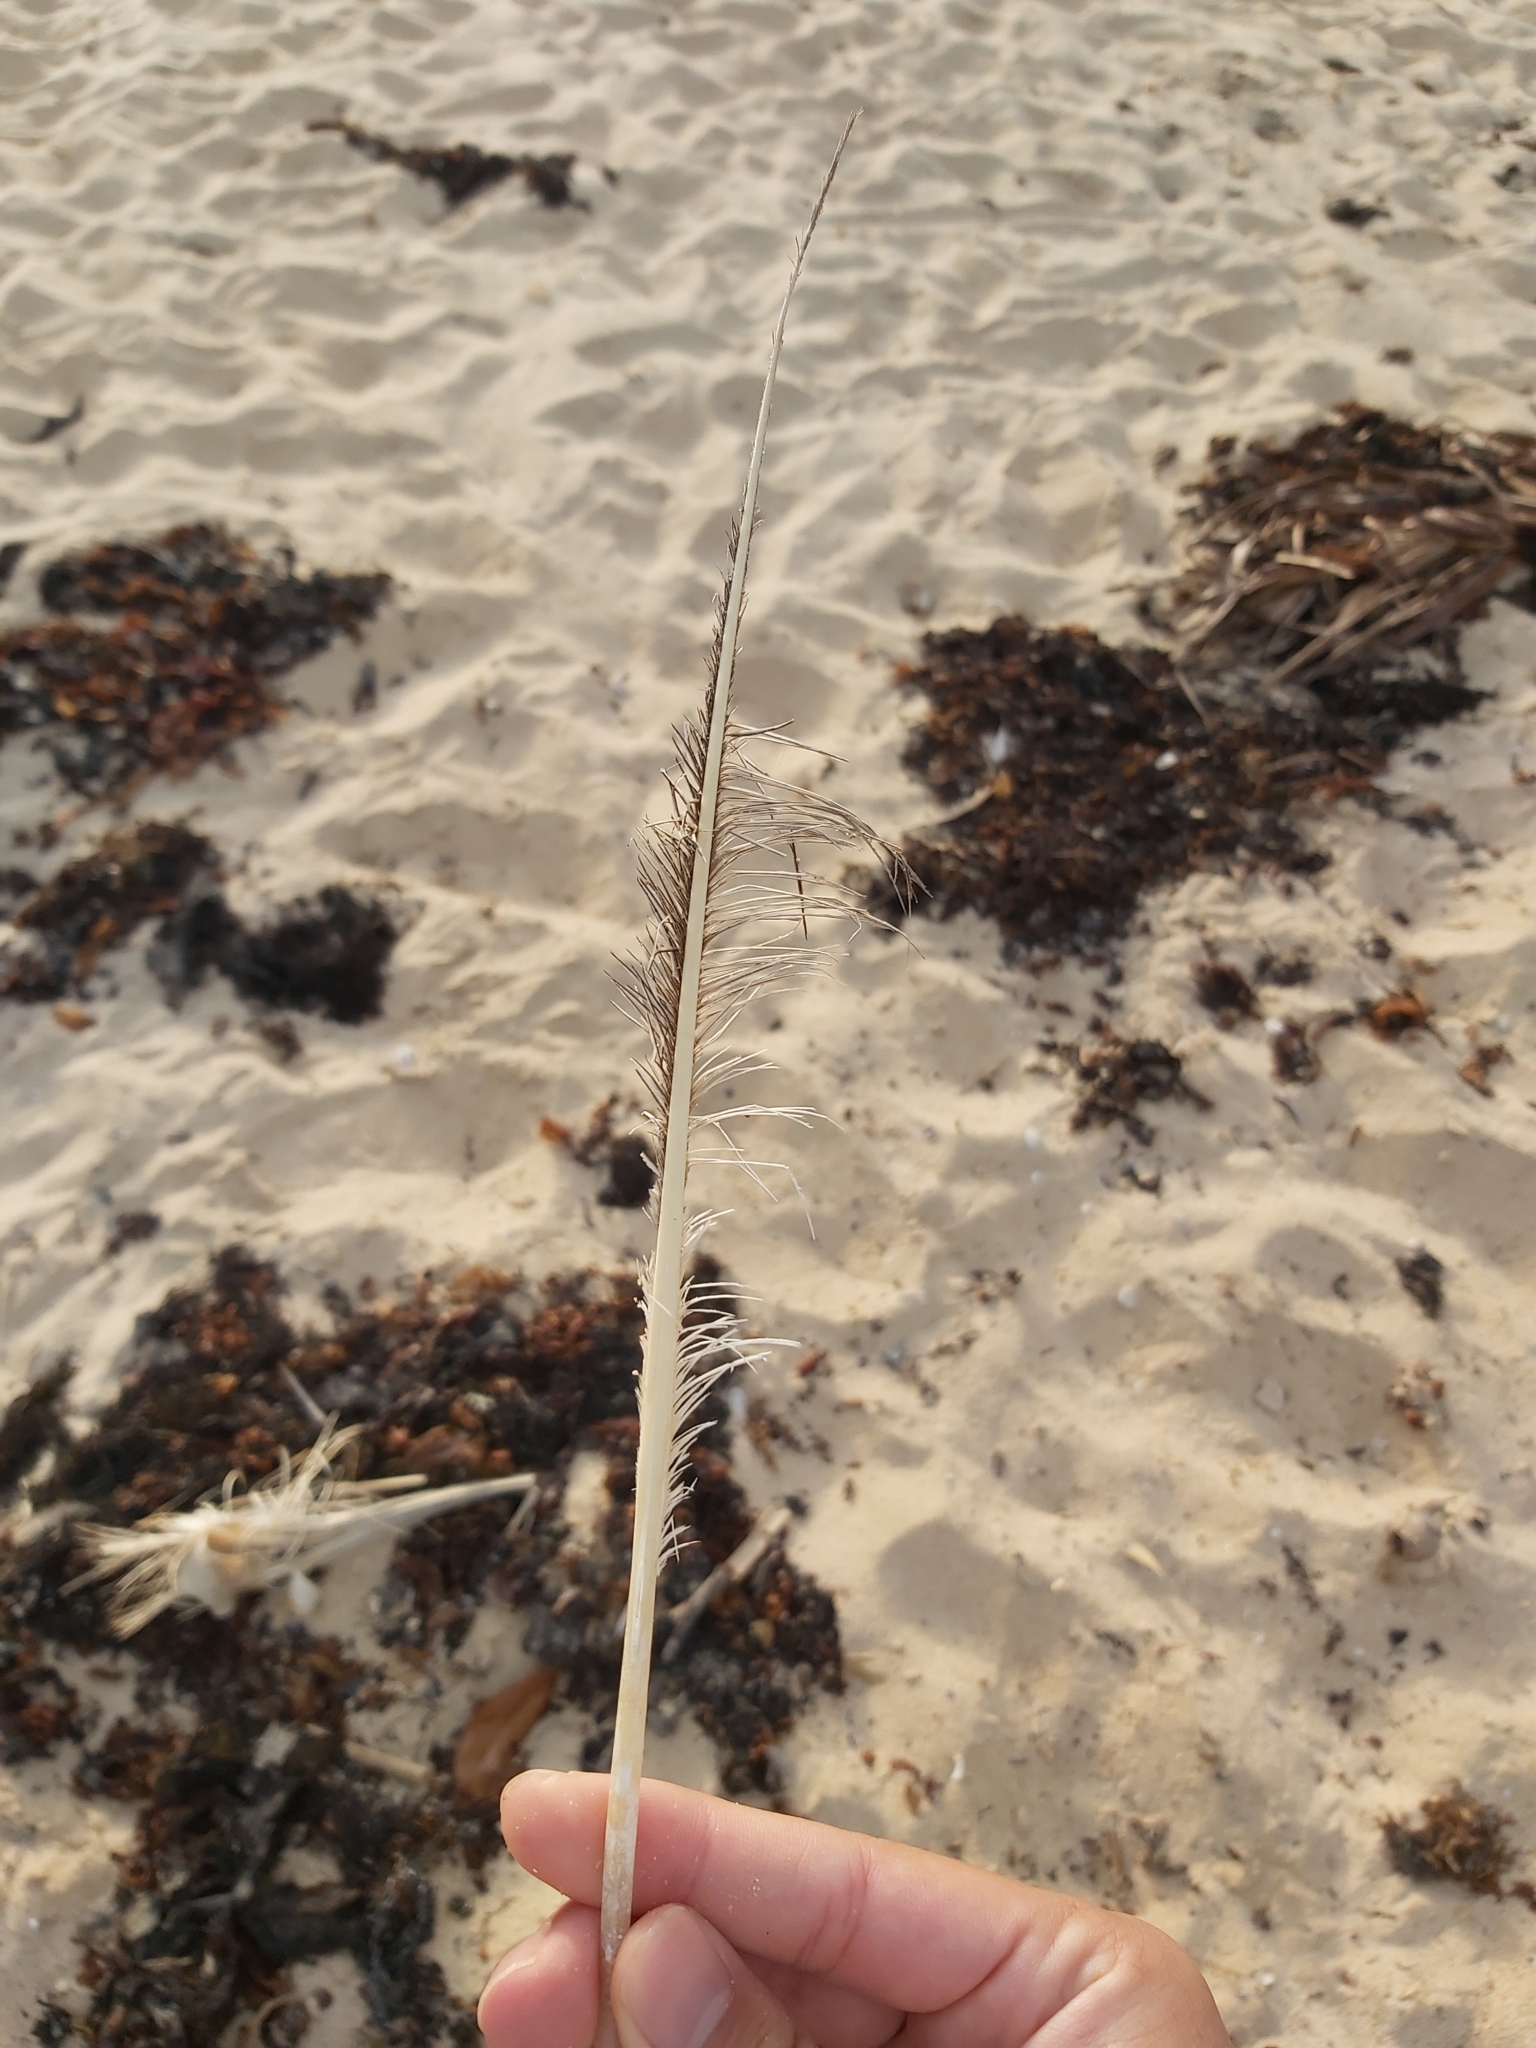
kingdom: Animalia
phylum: Chordata
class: Aves
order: Suliformes
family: Sulidae
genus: Morus
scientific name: Morus serrator
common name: Australasian gannet
